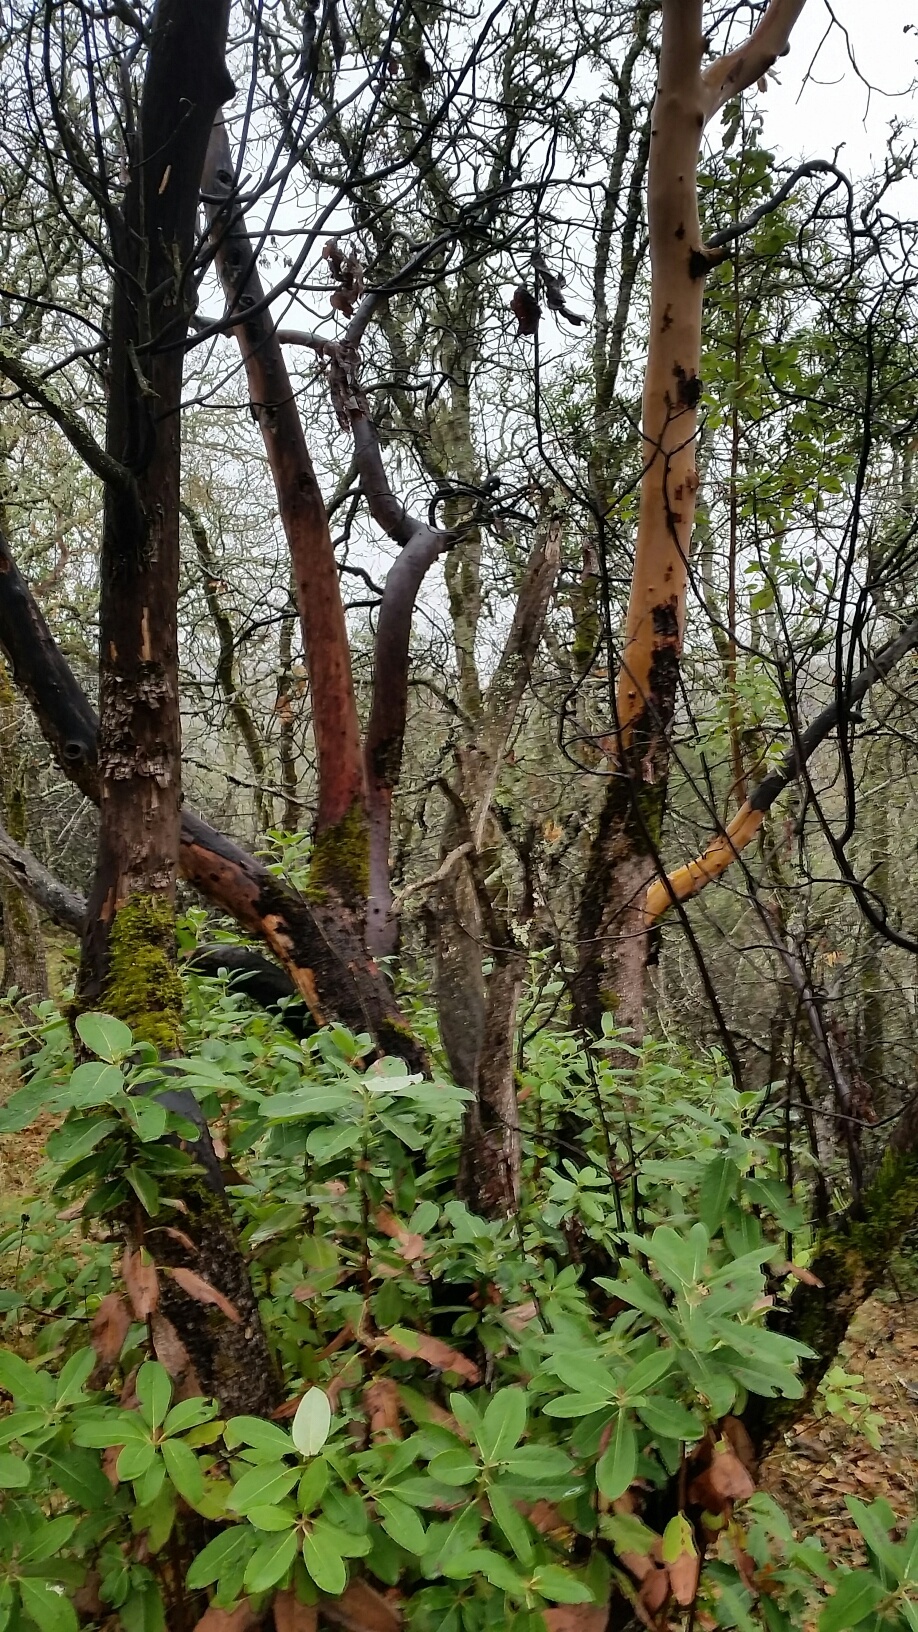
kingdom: Plantae
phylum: Tracheophyta
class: Magnoliopsida
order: Ericales
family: Ericaceae
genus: Arbutus
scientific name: Arbutus menziesii
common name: Pacific madrone
